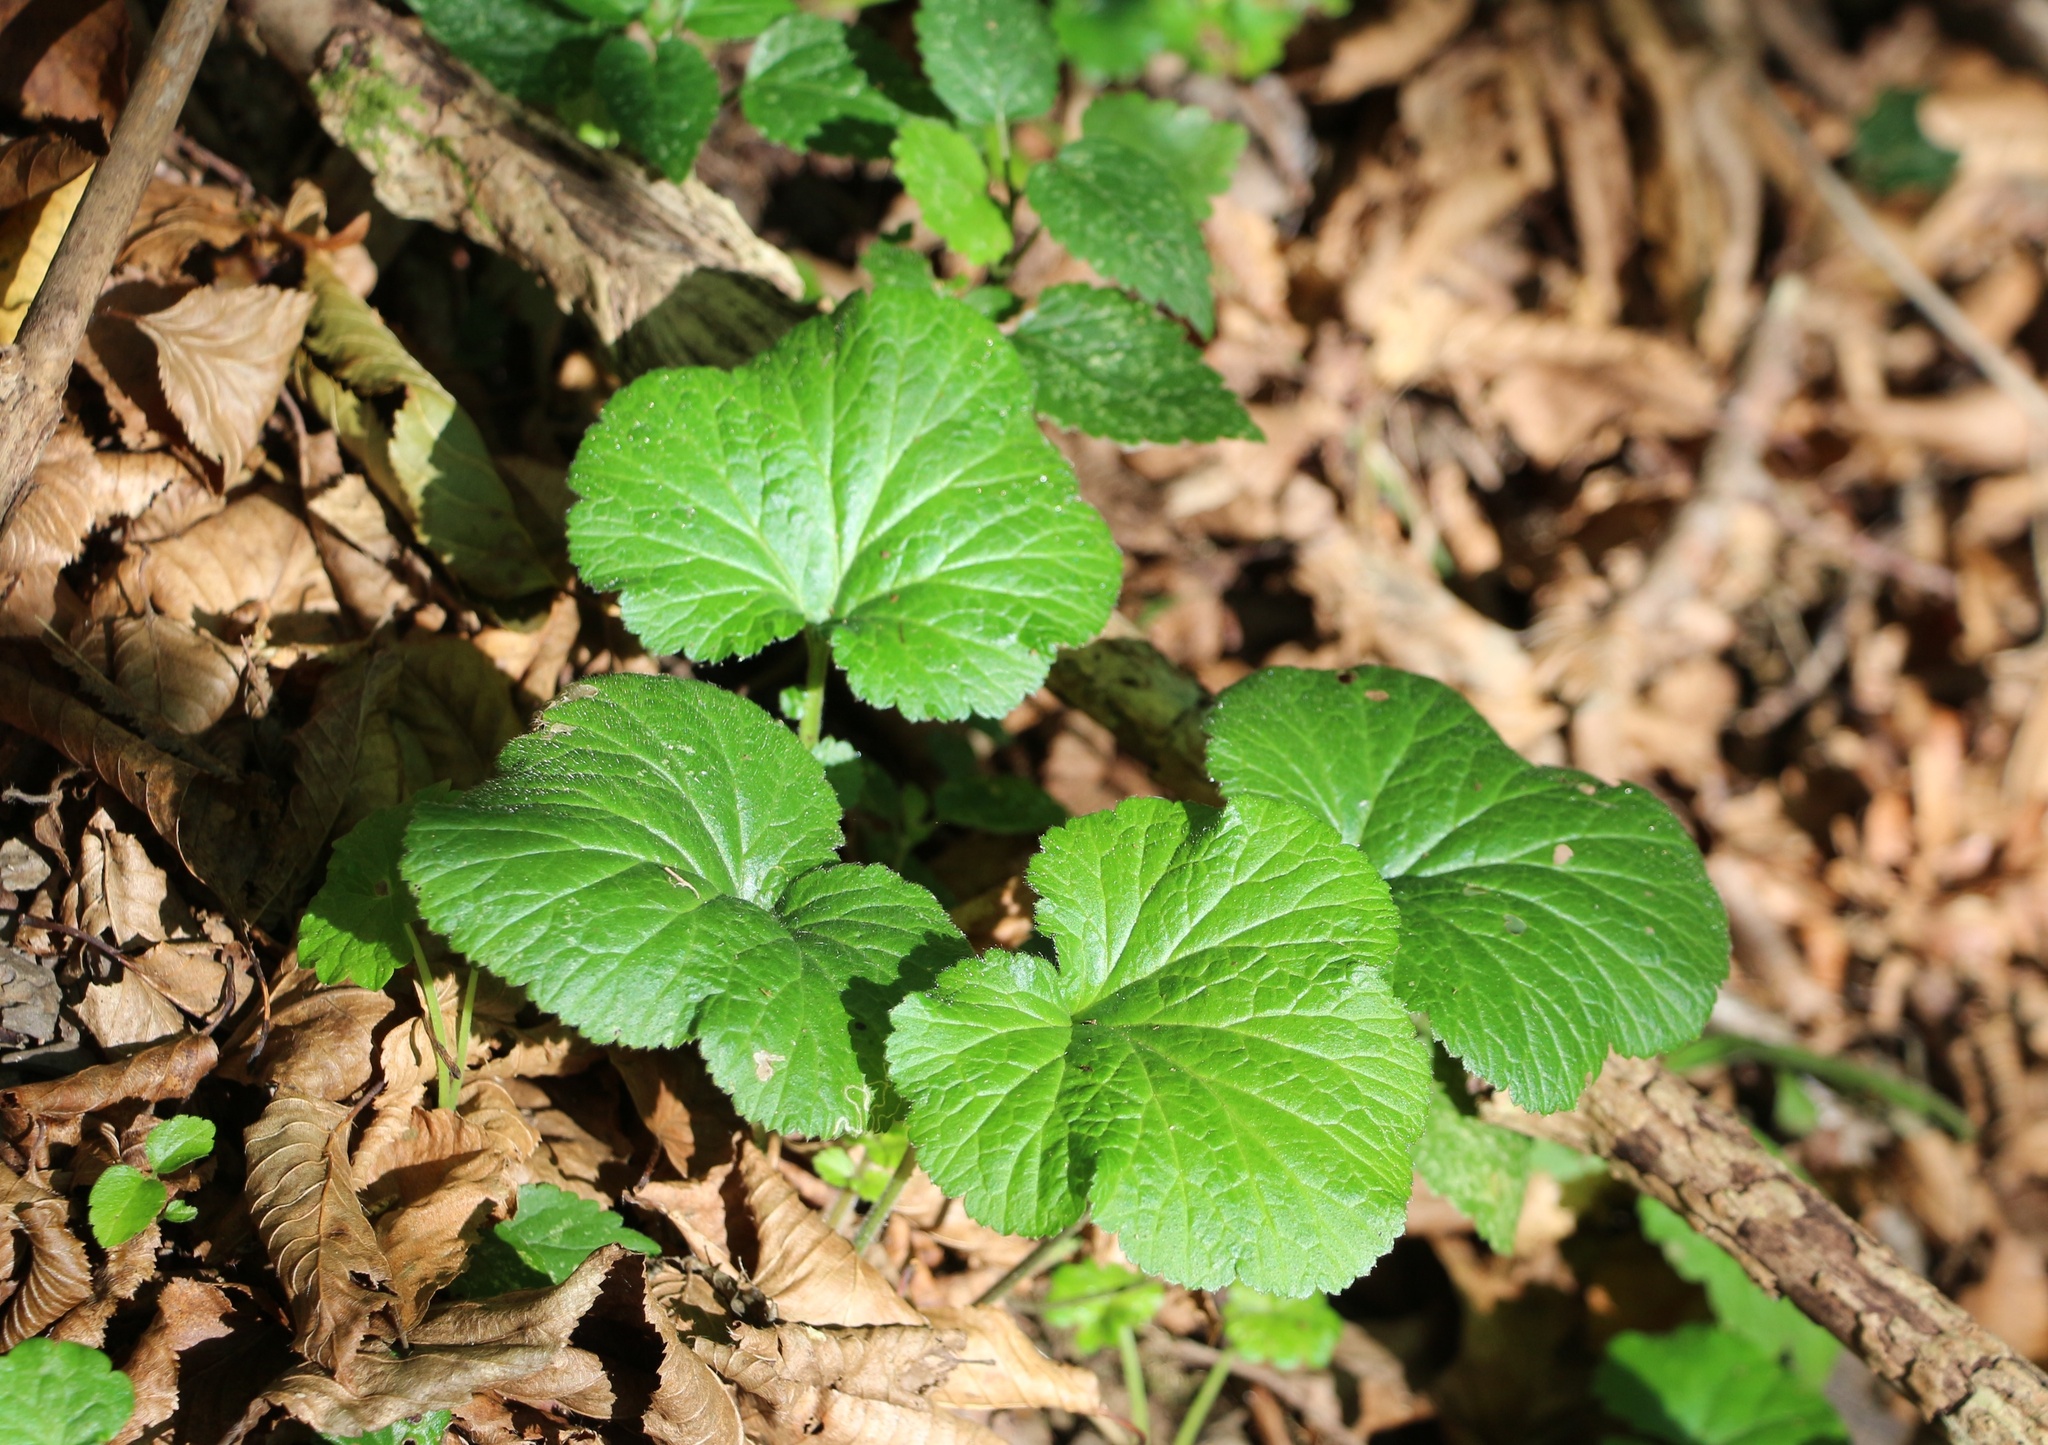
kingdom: Plantae
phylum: Tracheophyta
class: Magnoliopsida
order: Rosales
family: Rosaceae
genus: Geum
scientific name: Geum urbanum
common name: Wood avens
